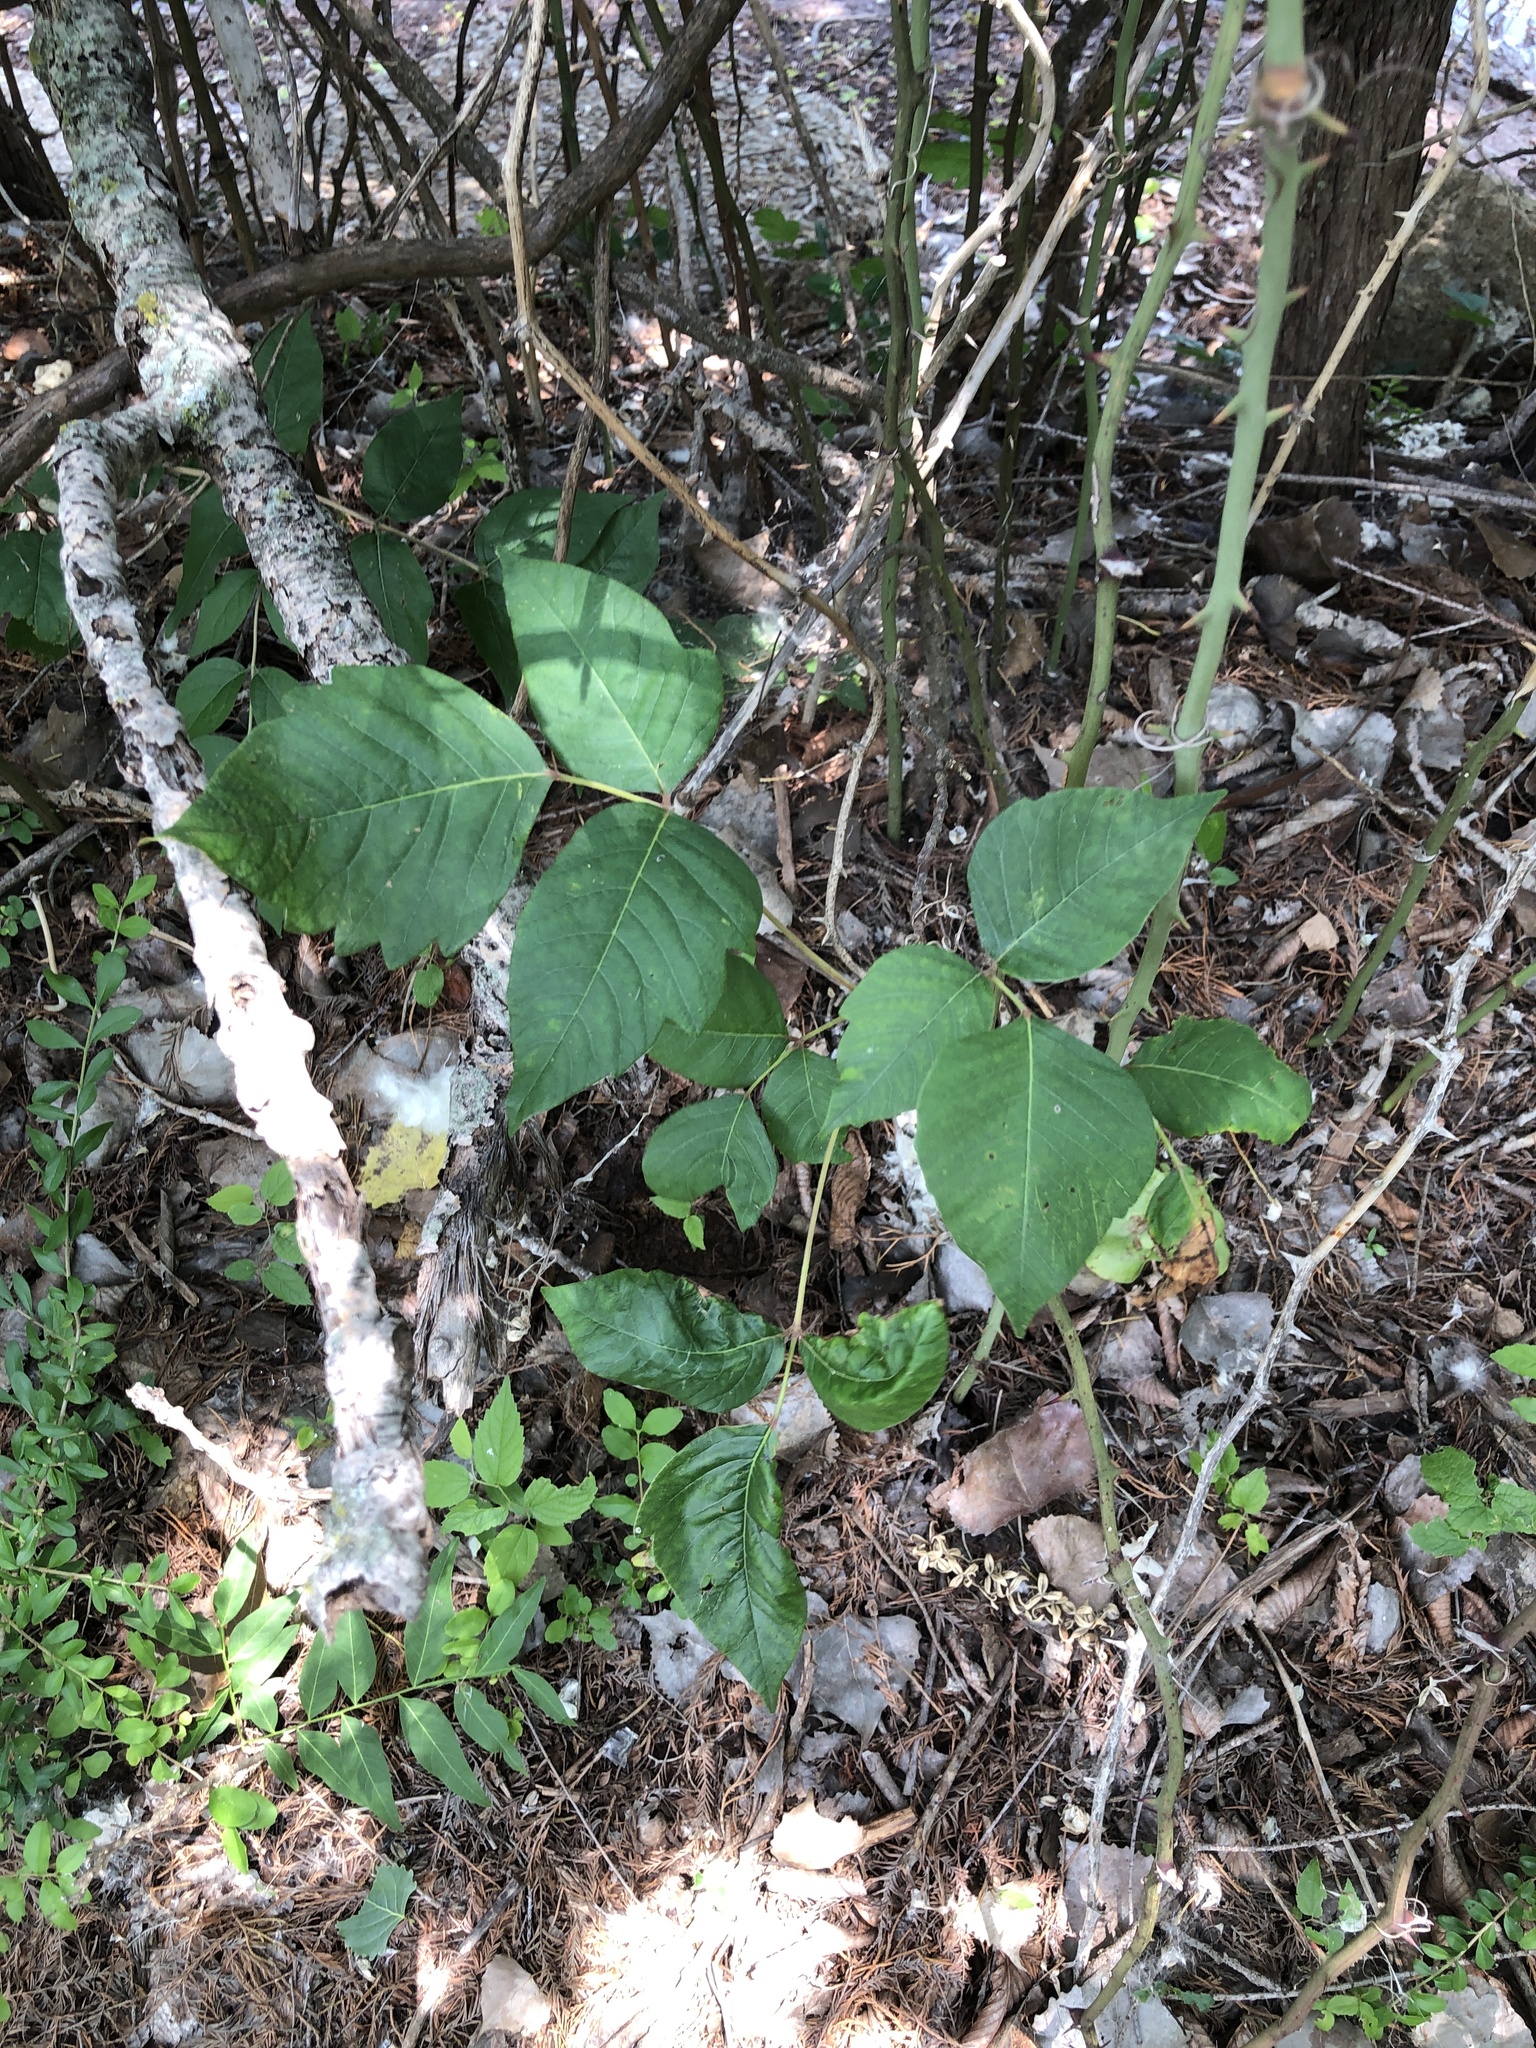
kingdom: Plantae
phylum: Tracheophyta
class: Magnoliopsida
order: Sapindales
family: Anacardiaceae
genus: Toxicodendron
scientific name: Toxicodendron radicans
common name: Poison ivy
